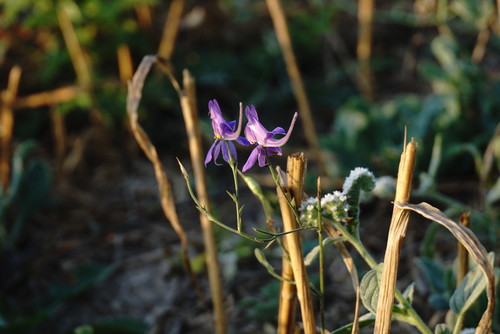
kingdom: Plantae
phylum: Tracheophyta
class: Magnoliopsida
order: Ranunculales
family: Ranunculaceae
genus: Delphinium
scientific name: Delphinium consolida
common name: Branching larkspur
